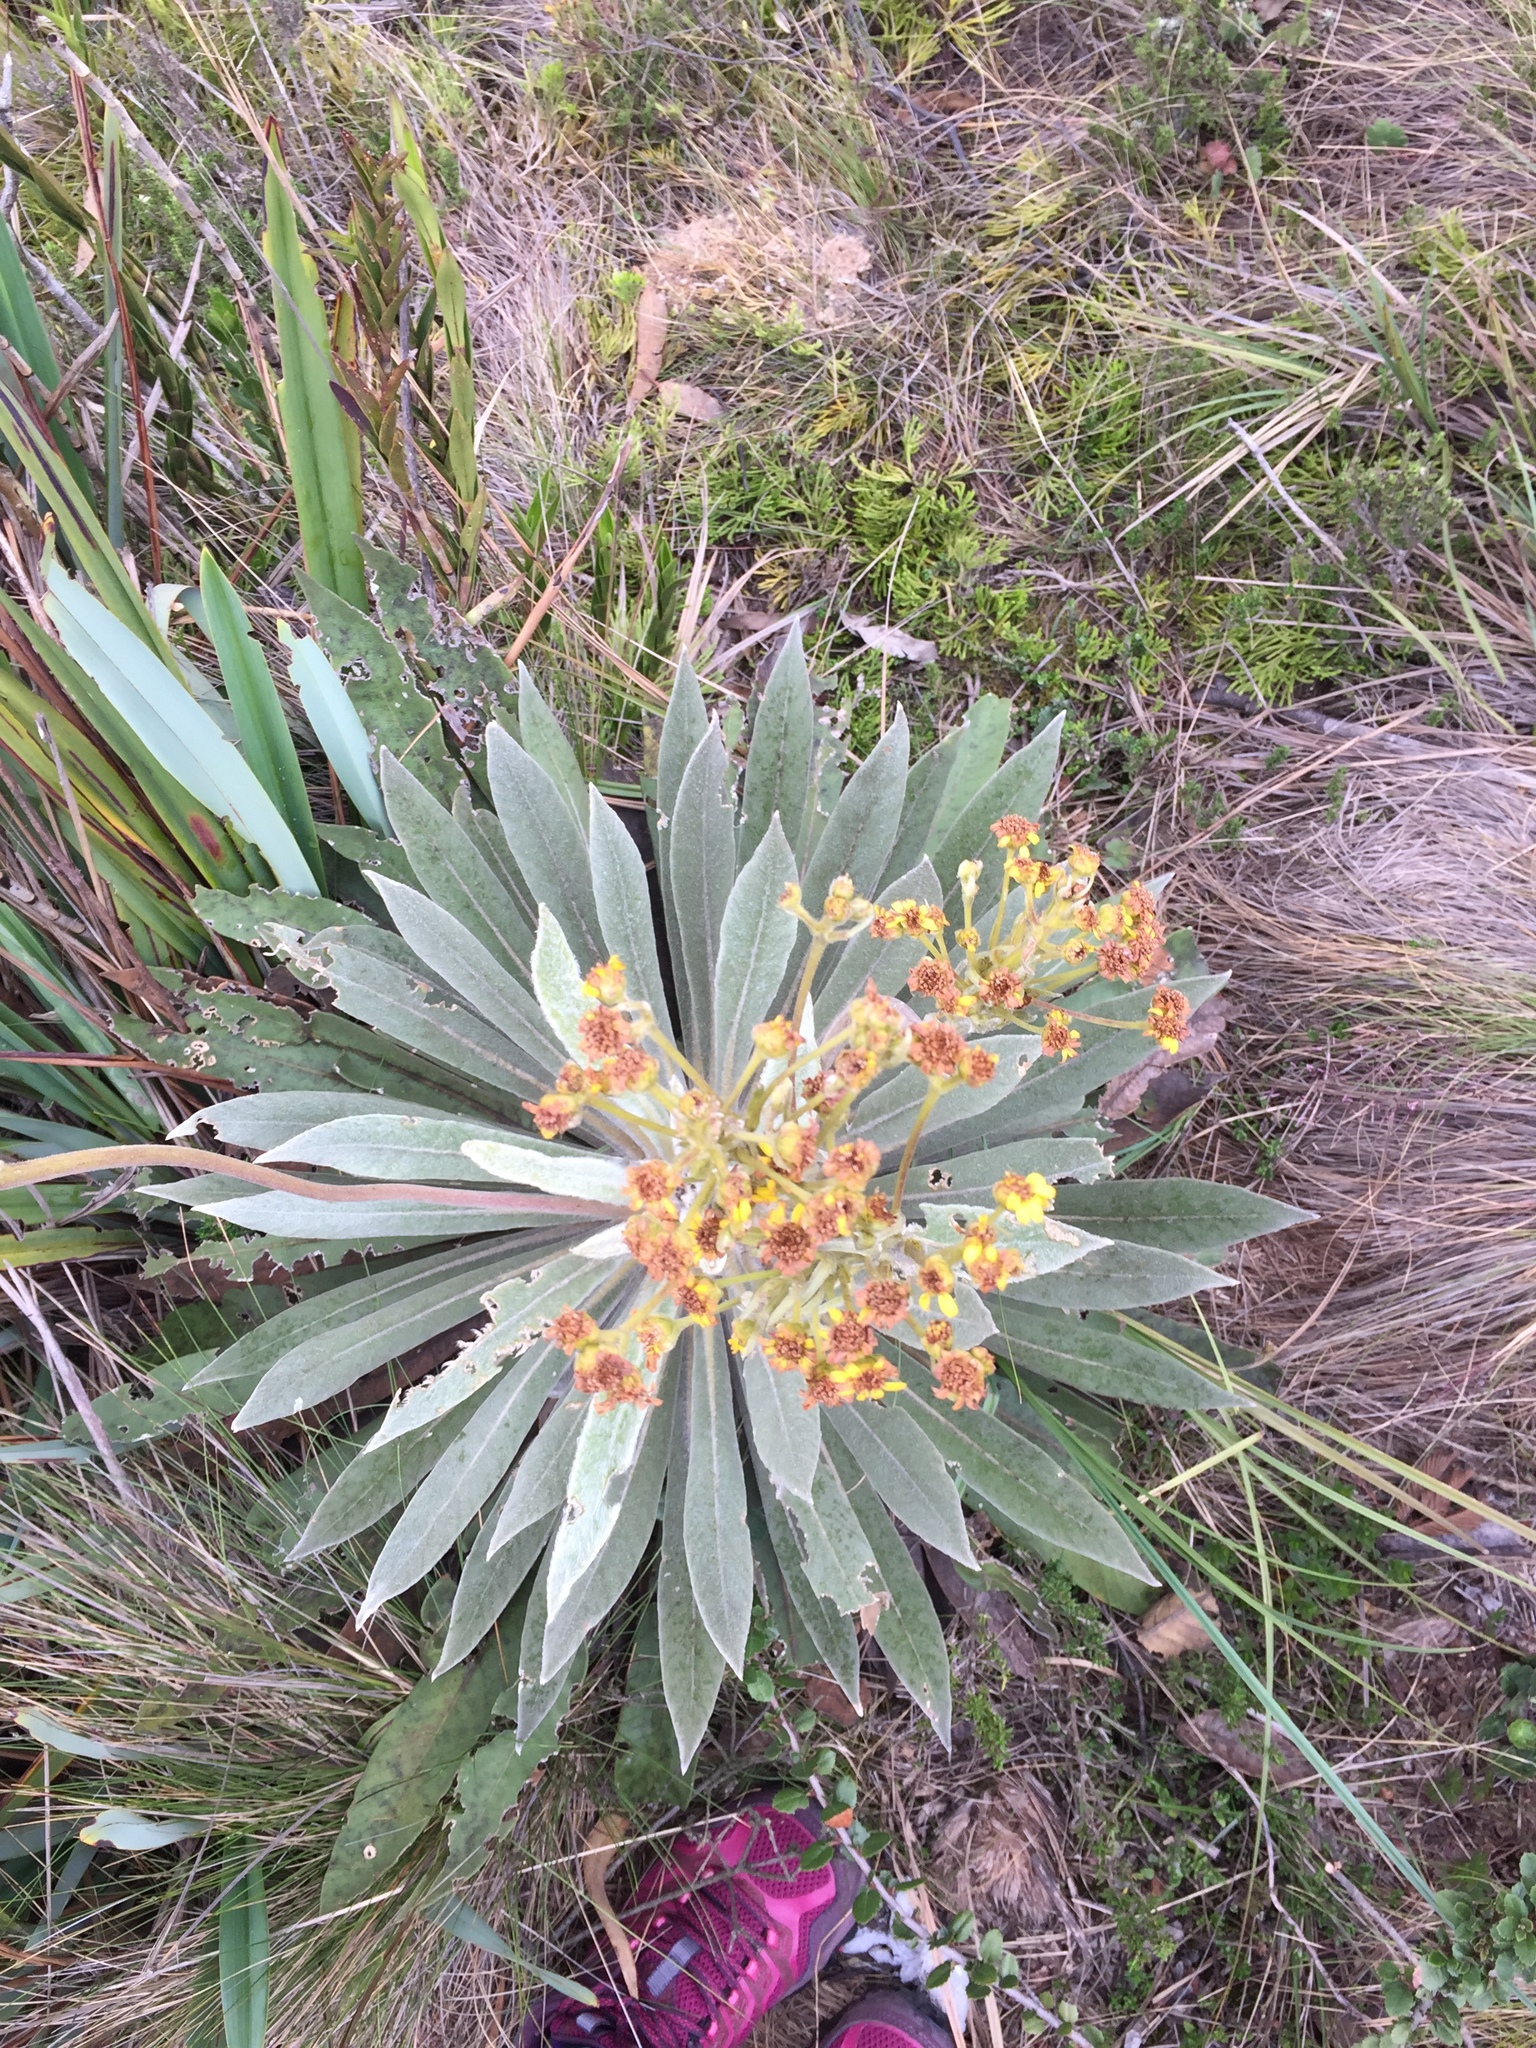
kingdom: Plantae
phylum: Tracheophyta
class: Magnoliopsida
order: Asterales
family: Asteraceae
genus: Espeletia
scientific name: Espeletia corymbosa
